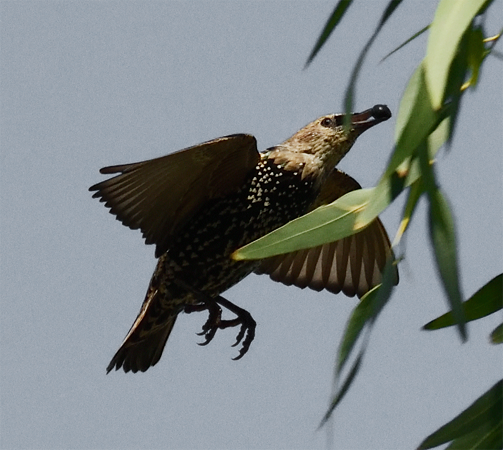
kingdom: Animalia
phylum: Chordata
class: Aves
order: Passeriformes
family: Sturnidae
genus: Sturnus
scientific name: Sturnus vulgaris
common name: Common starling
